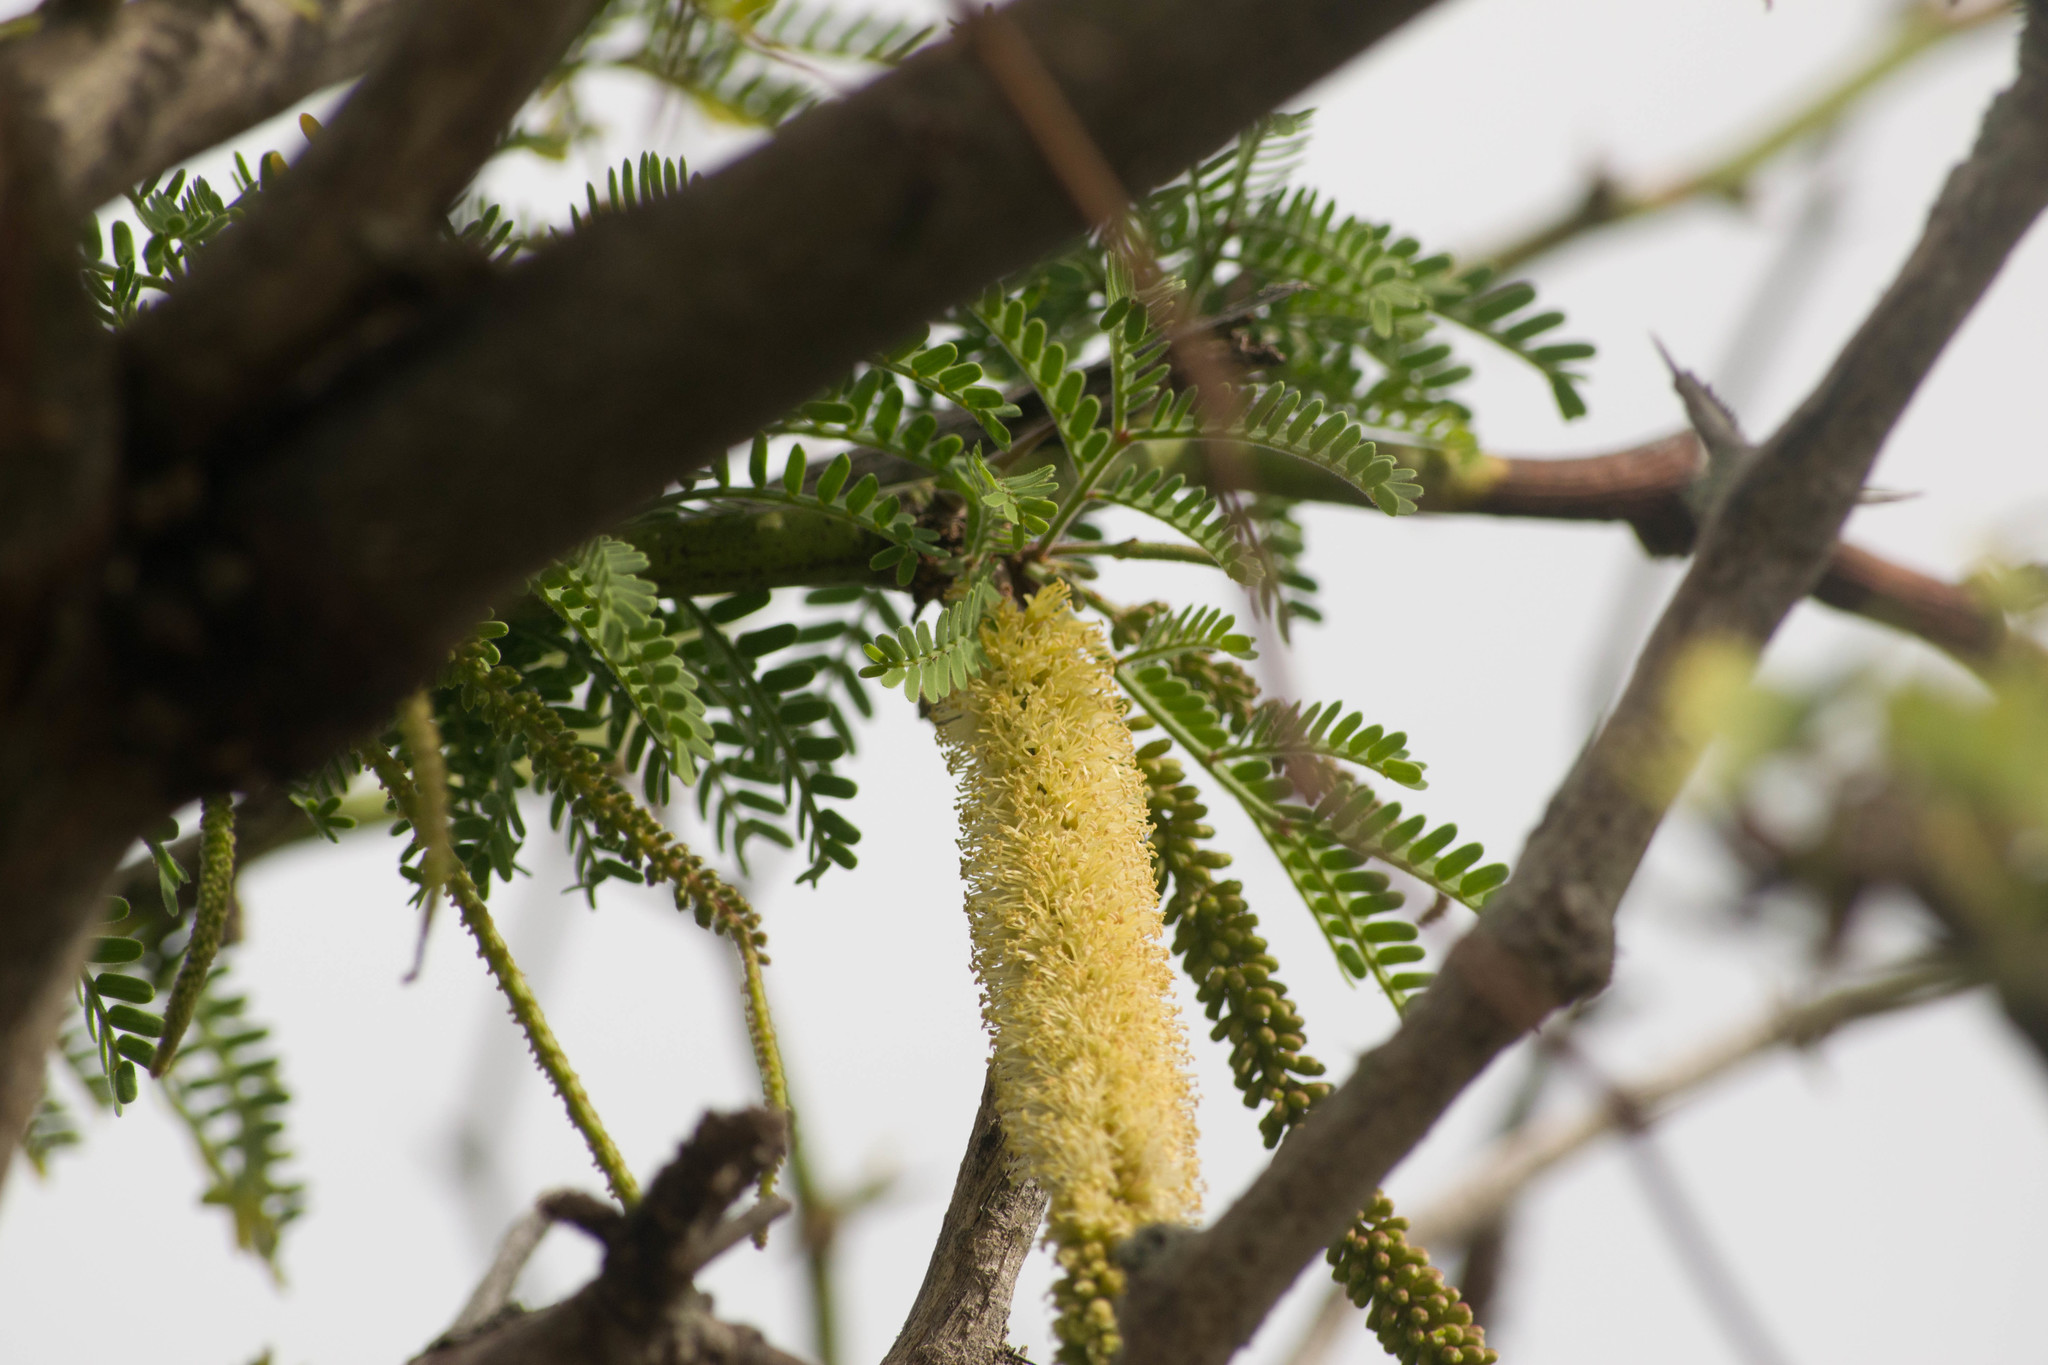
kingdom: Plantae
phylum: Tracheophyta
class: Magnoliopsida
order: Fabales
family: Fabaceae
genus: Prosopis
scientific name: Prosopis juliflora
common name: Mesquite
